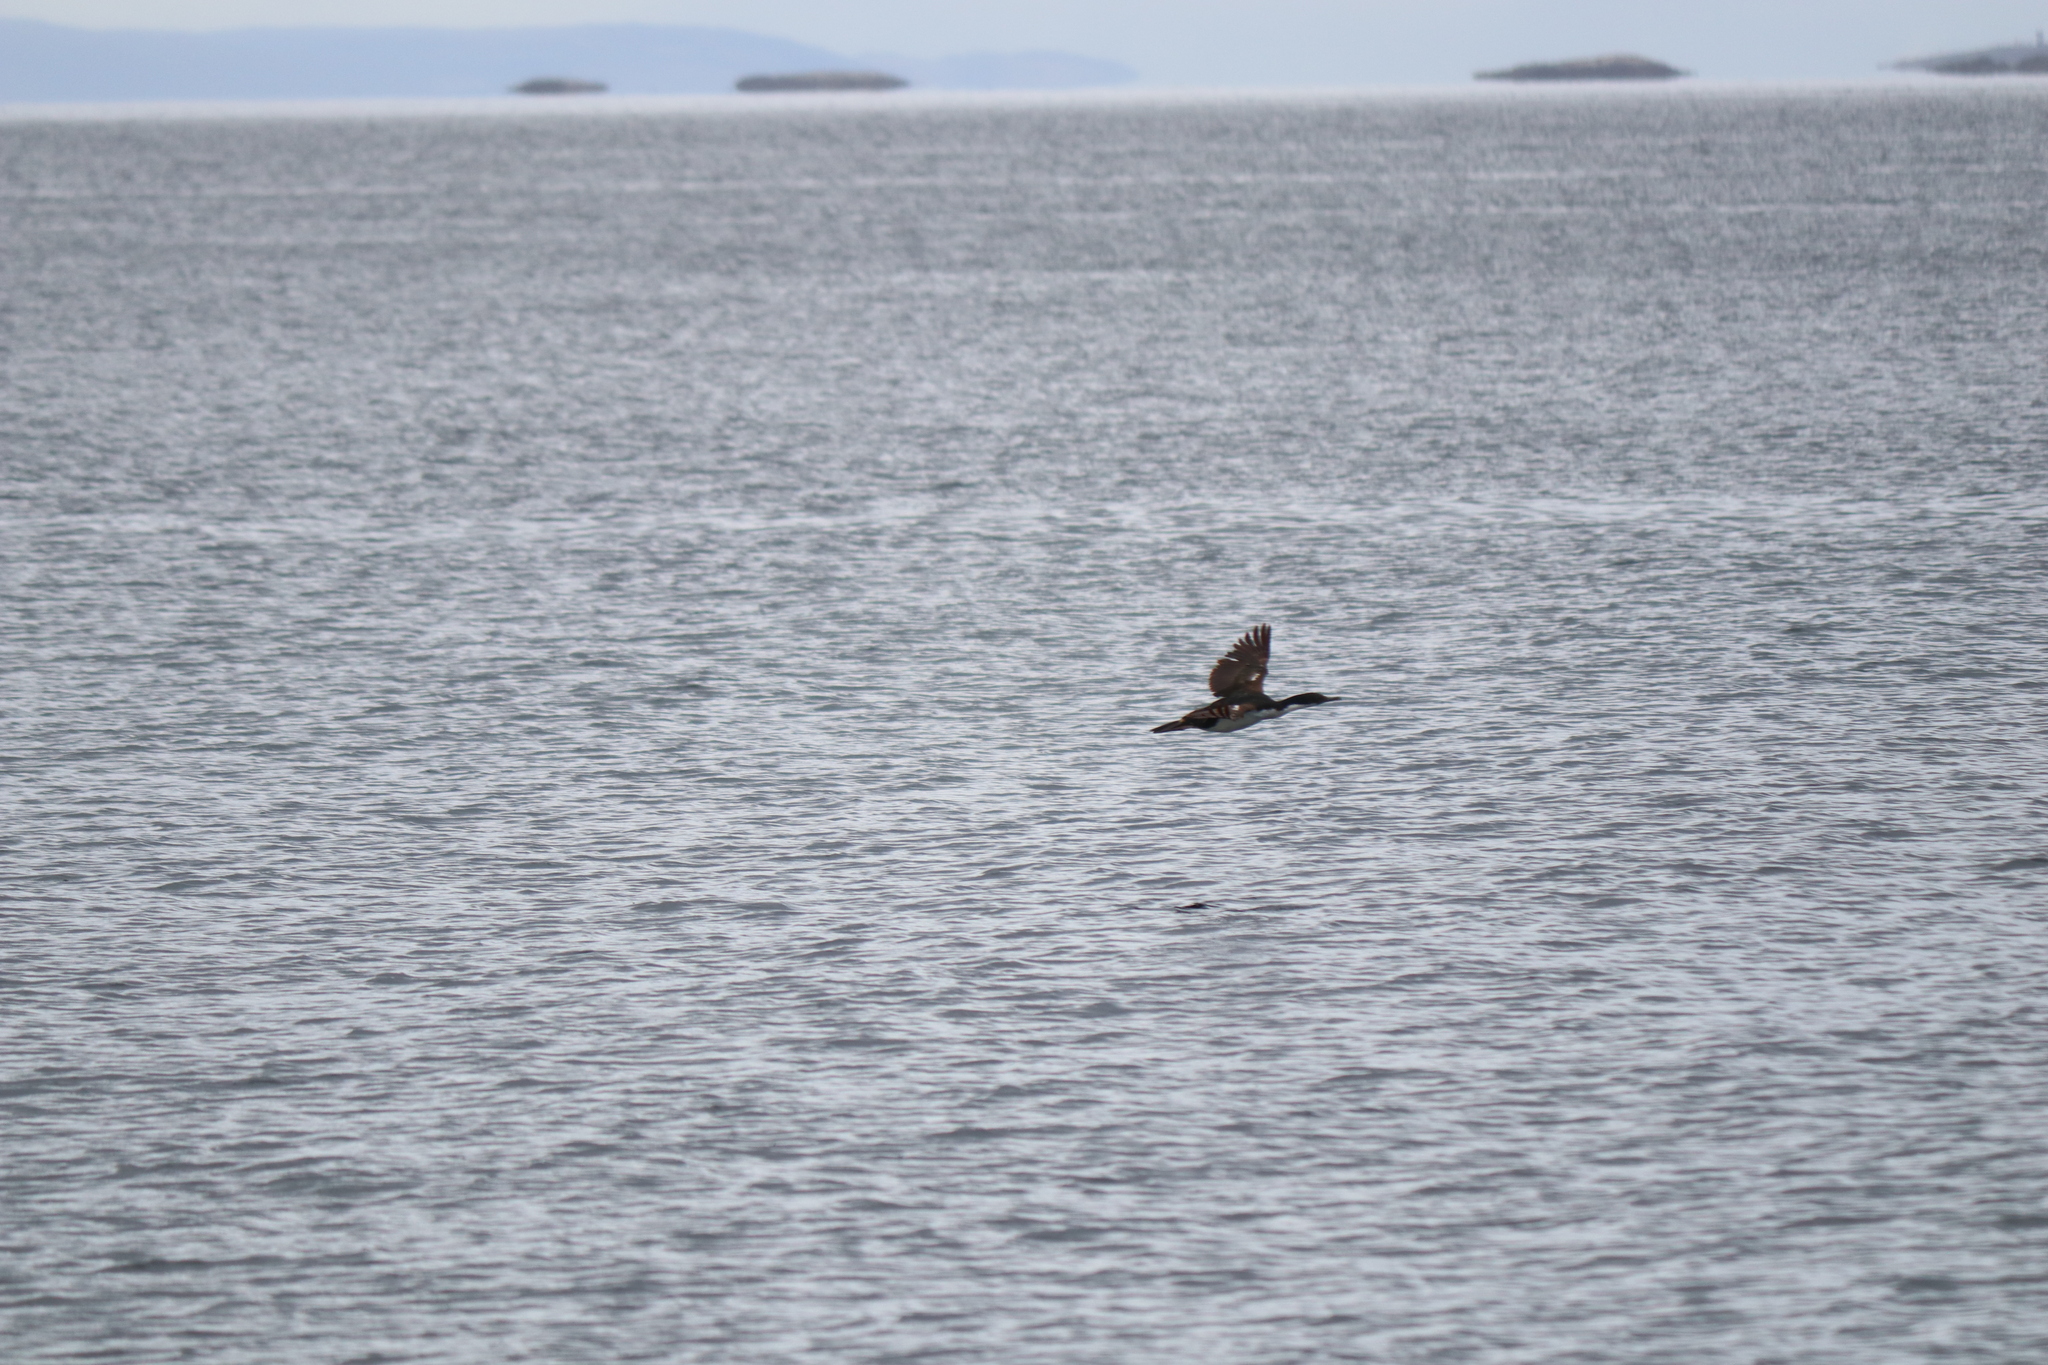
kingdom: Animalia
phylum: Chordata
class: Aves
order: Suliformes
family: Phalacrocoracidae
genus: Leucocarbo
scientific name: Leucocarbo atriceps
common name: Imperial shag
